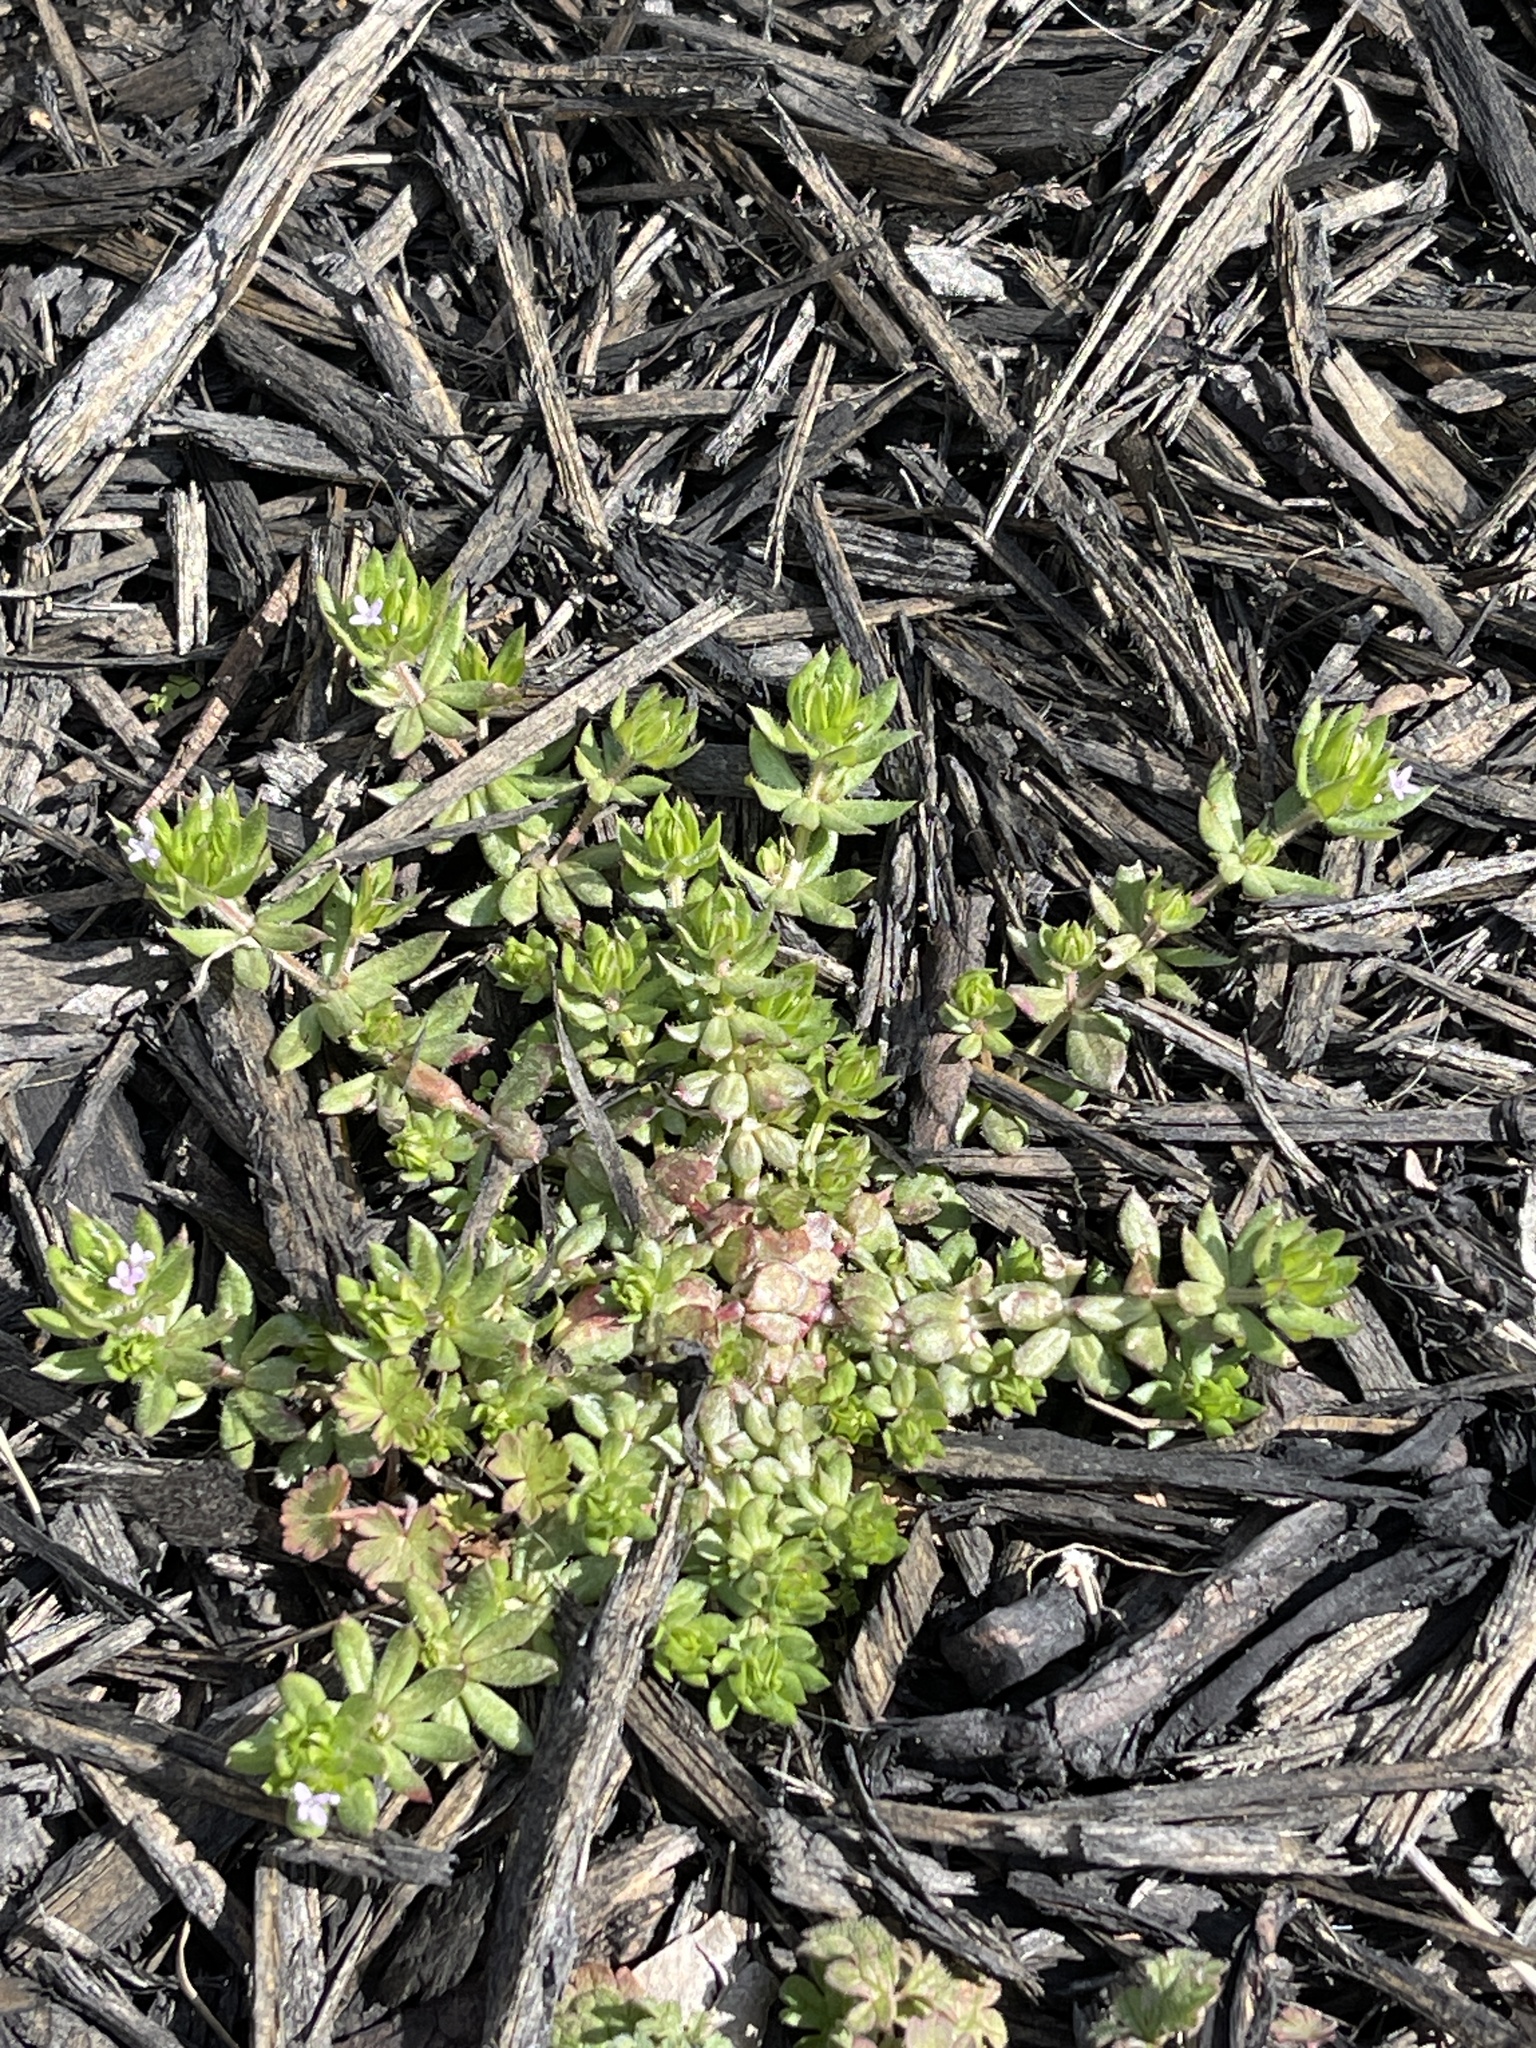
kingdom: Plantae
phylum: Tracheophyta
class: Magnoliopsida
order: Gentianales
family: Rubiaceae
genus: Sherardia
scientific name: Sherardia arvensis
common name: Field madder
